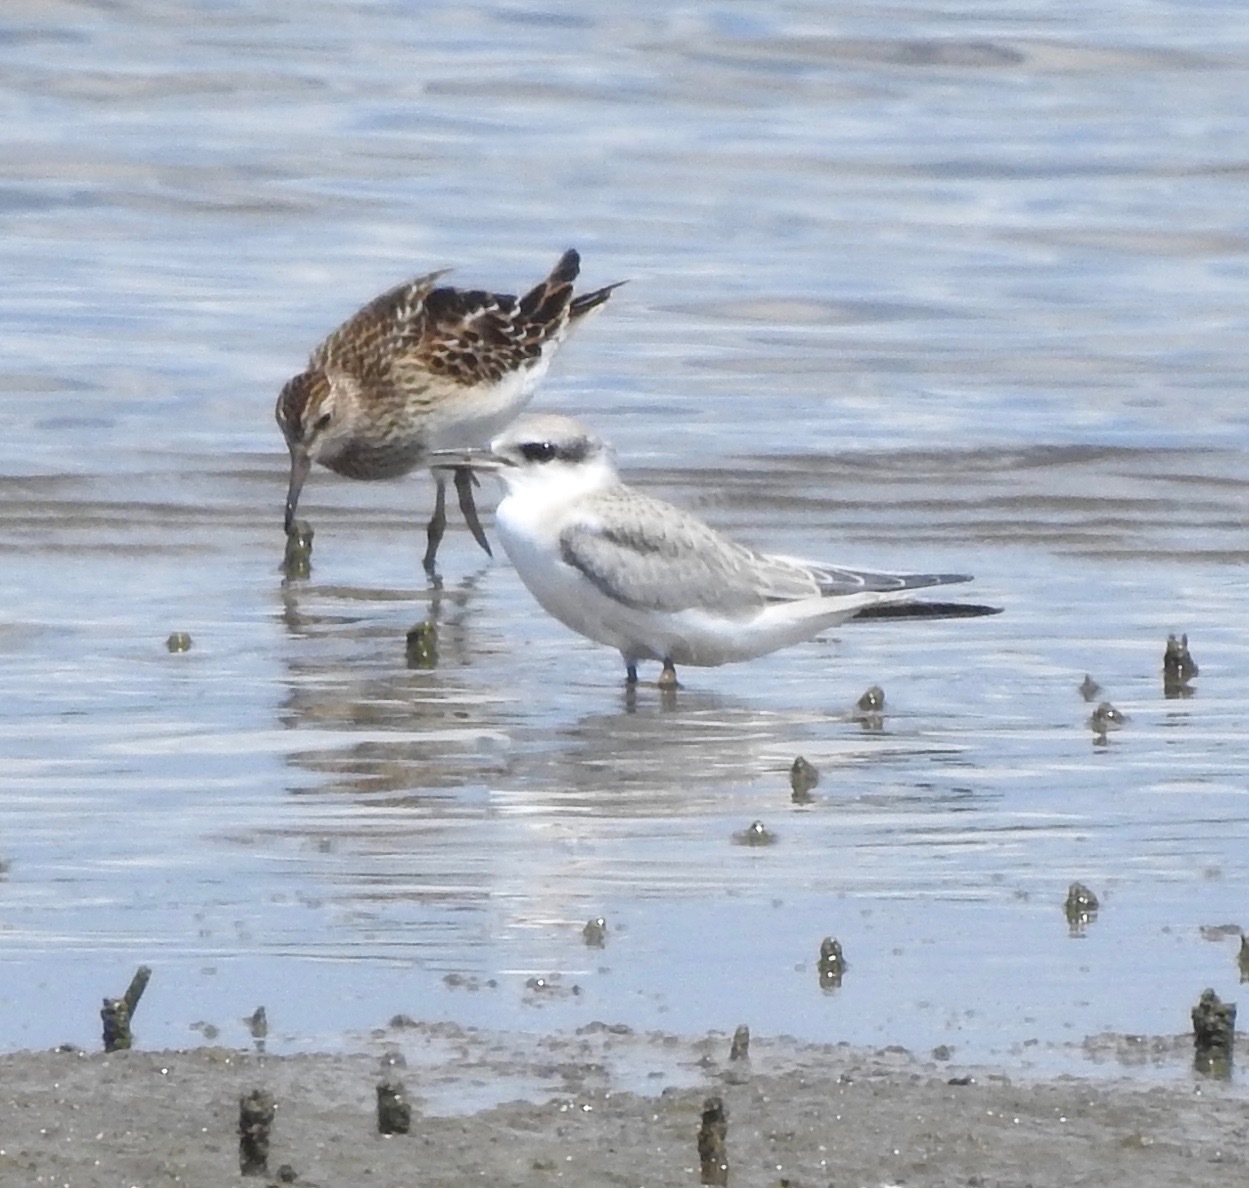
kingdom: Animalia
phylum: Chordata
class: Aves
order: Charadriiformes
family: Laridae
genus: Sternula
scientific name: Sternula antillarum
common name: Least tern
